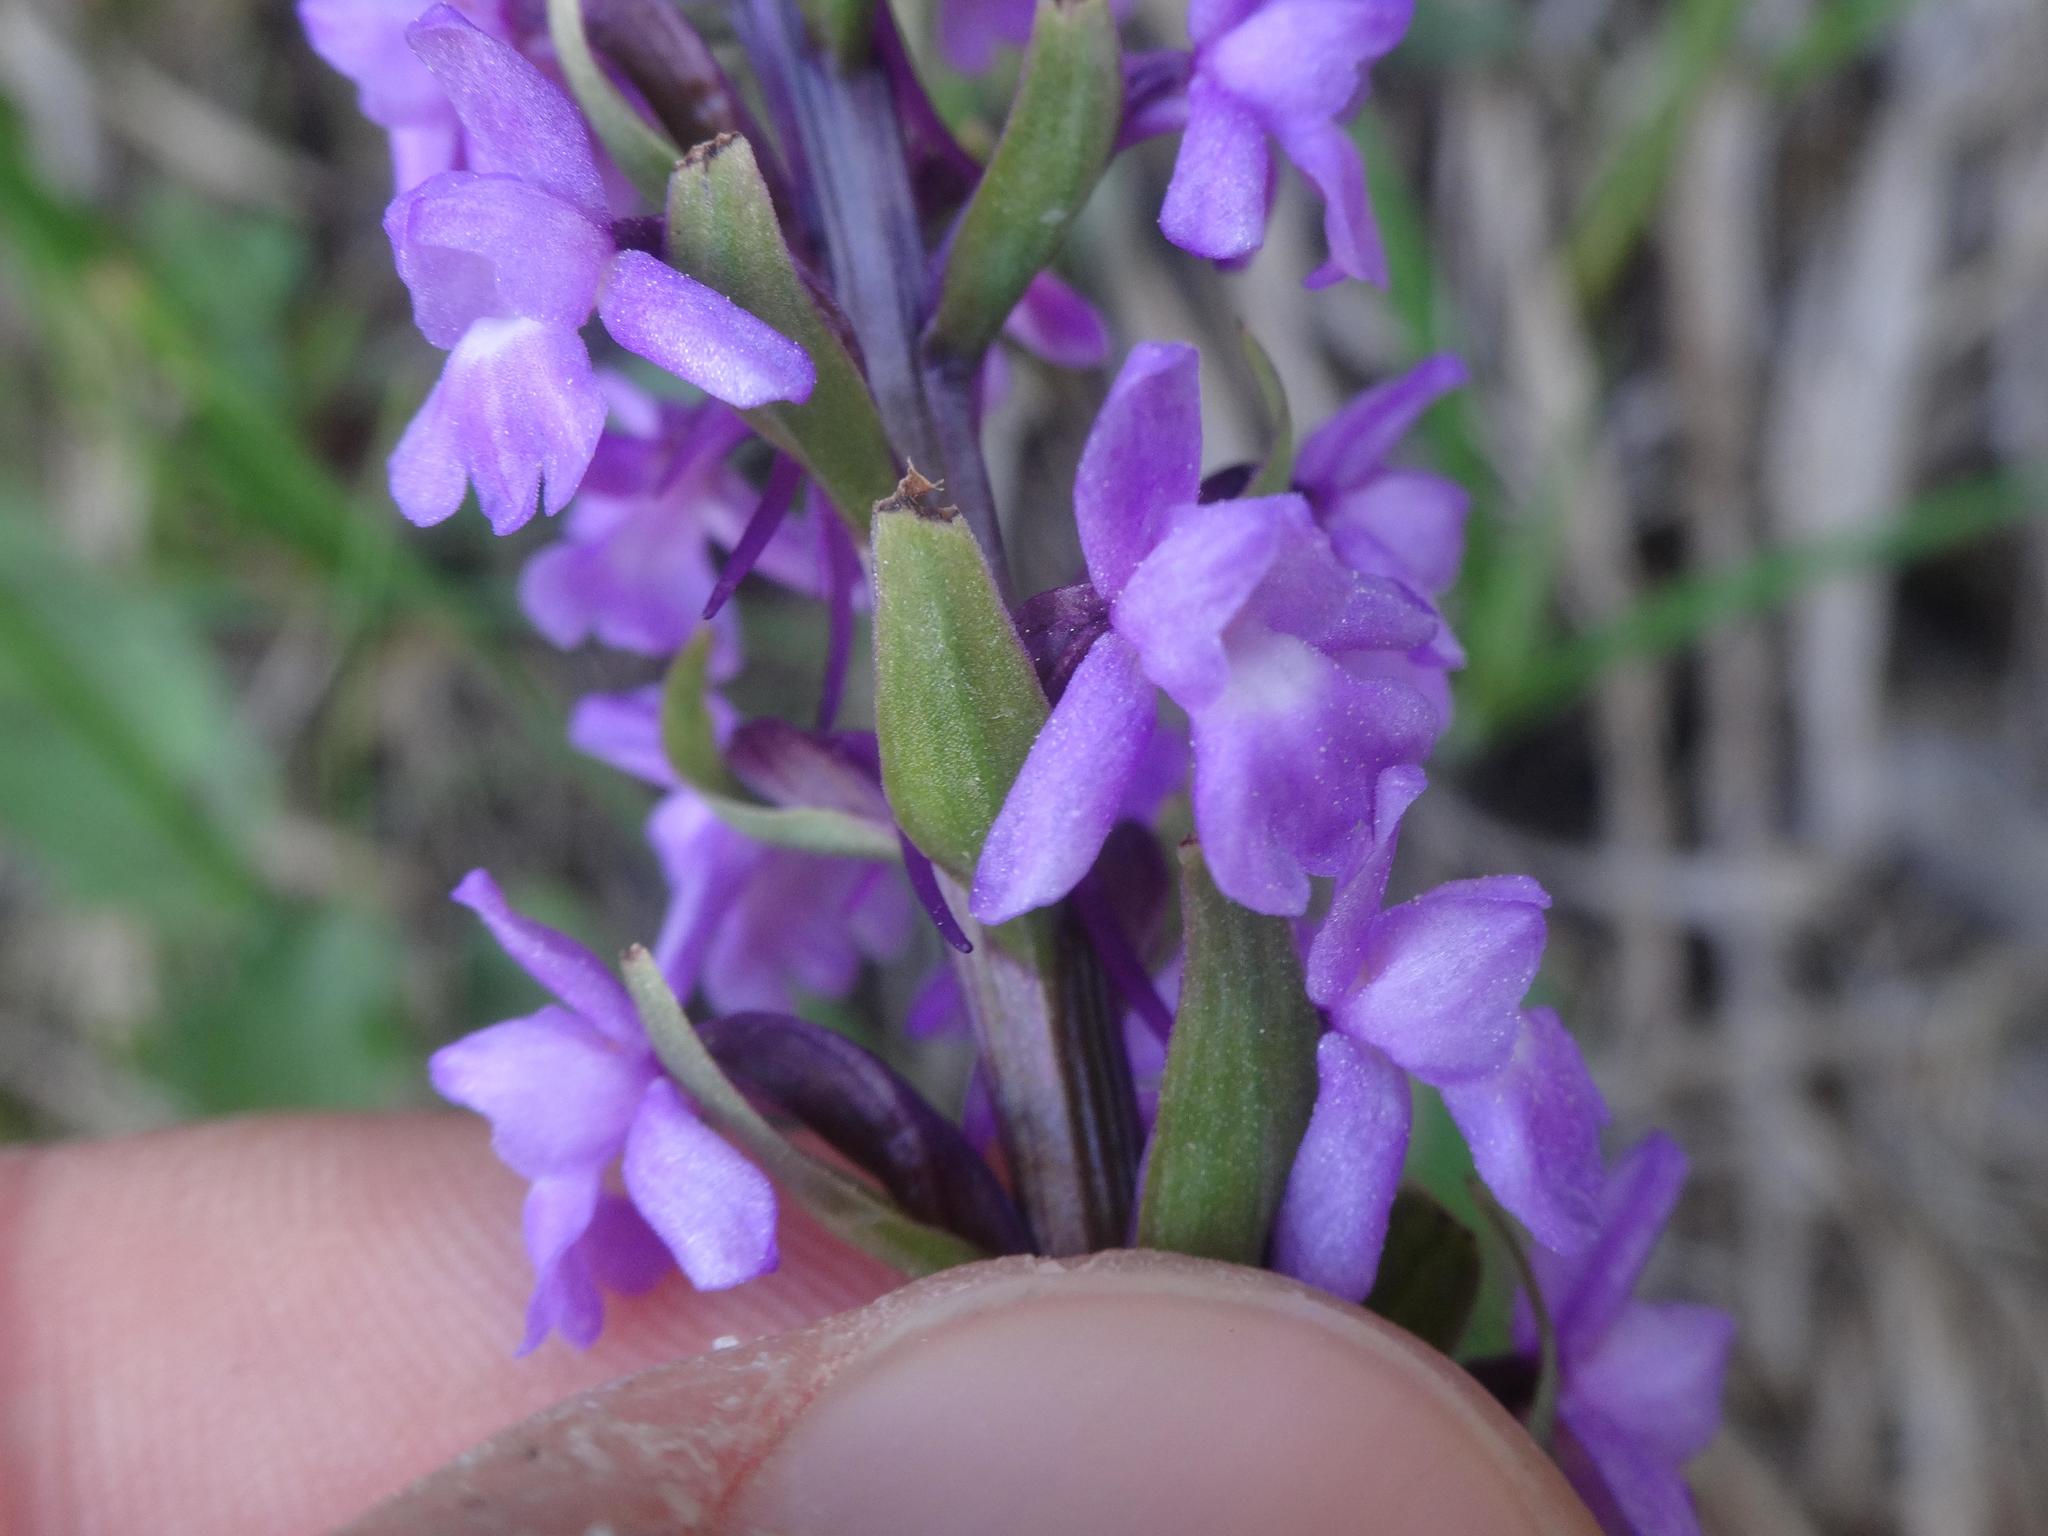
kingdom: Plantae
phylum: Tracheophyta
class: Liliopsida
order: Asparagales
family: Orchidaceae
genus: Gymnadenia
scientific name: Gymnadenia conopsea
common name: Fragrant orchid
